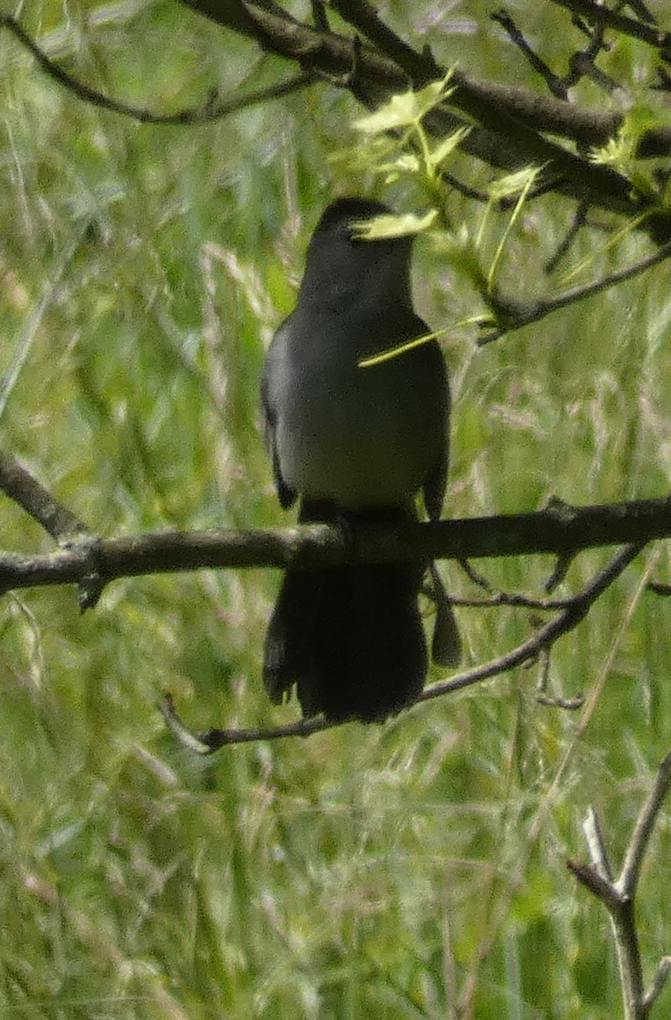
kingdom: Animalia
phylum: Chordata
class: Aves
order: Passeriformes
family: Mimidae
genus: Dumetella
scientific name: Dumetella carolinensis
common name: Gray catbird
